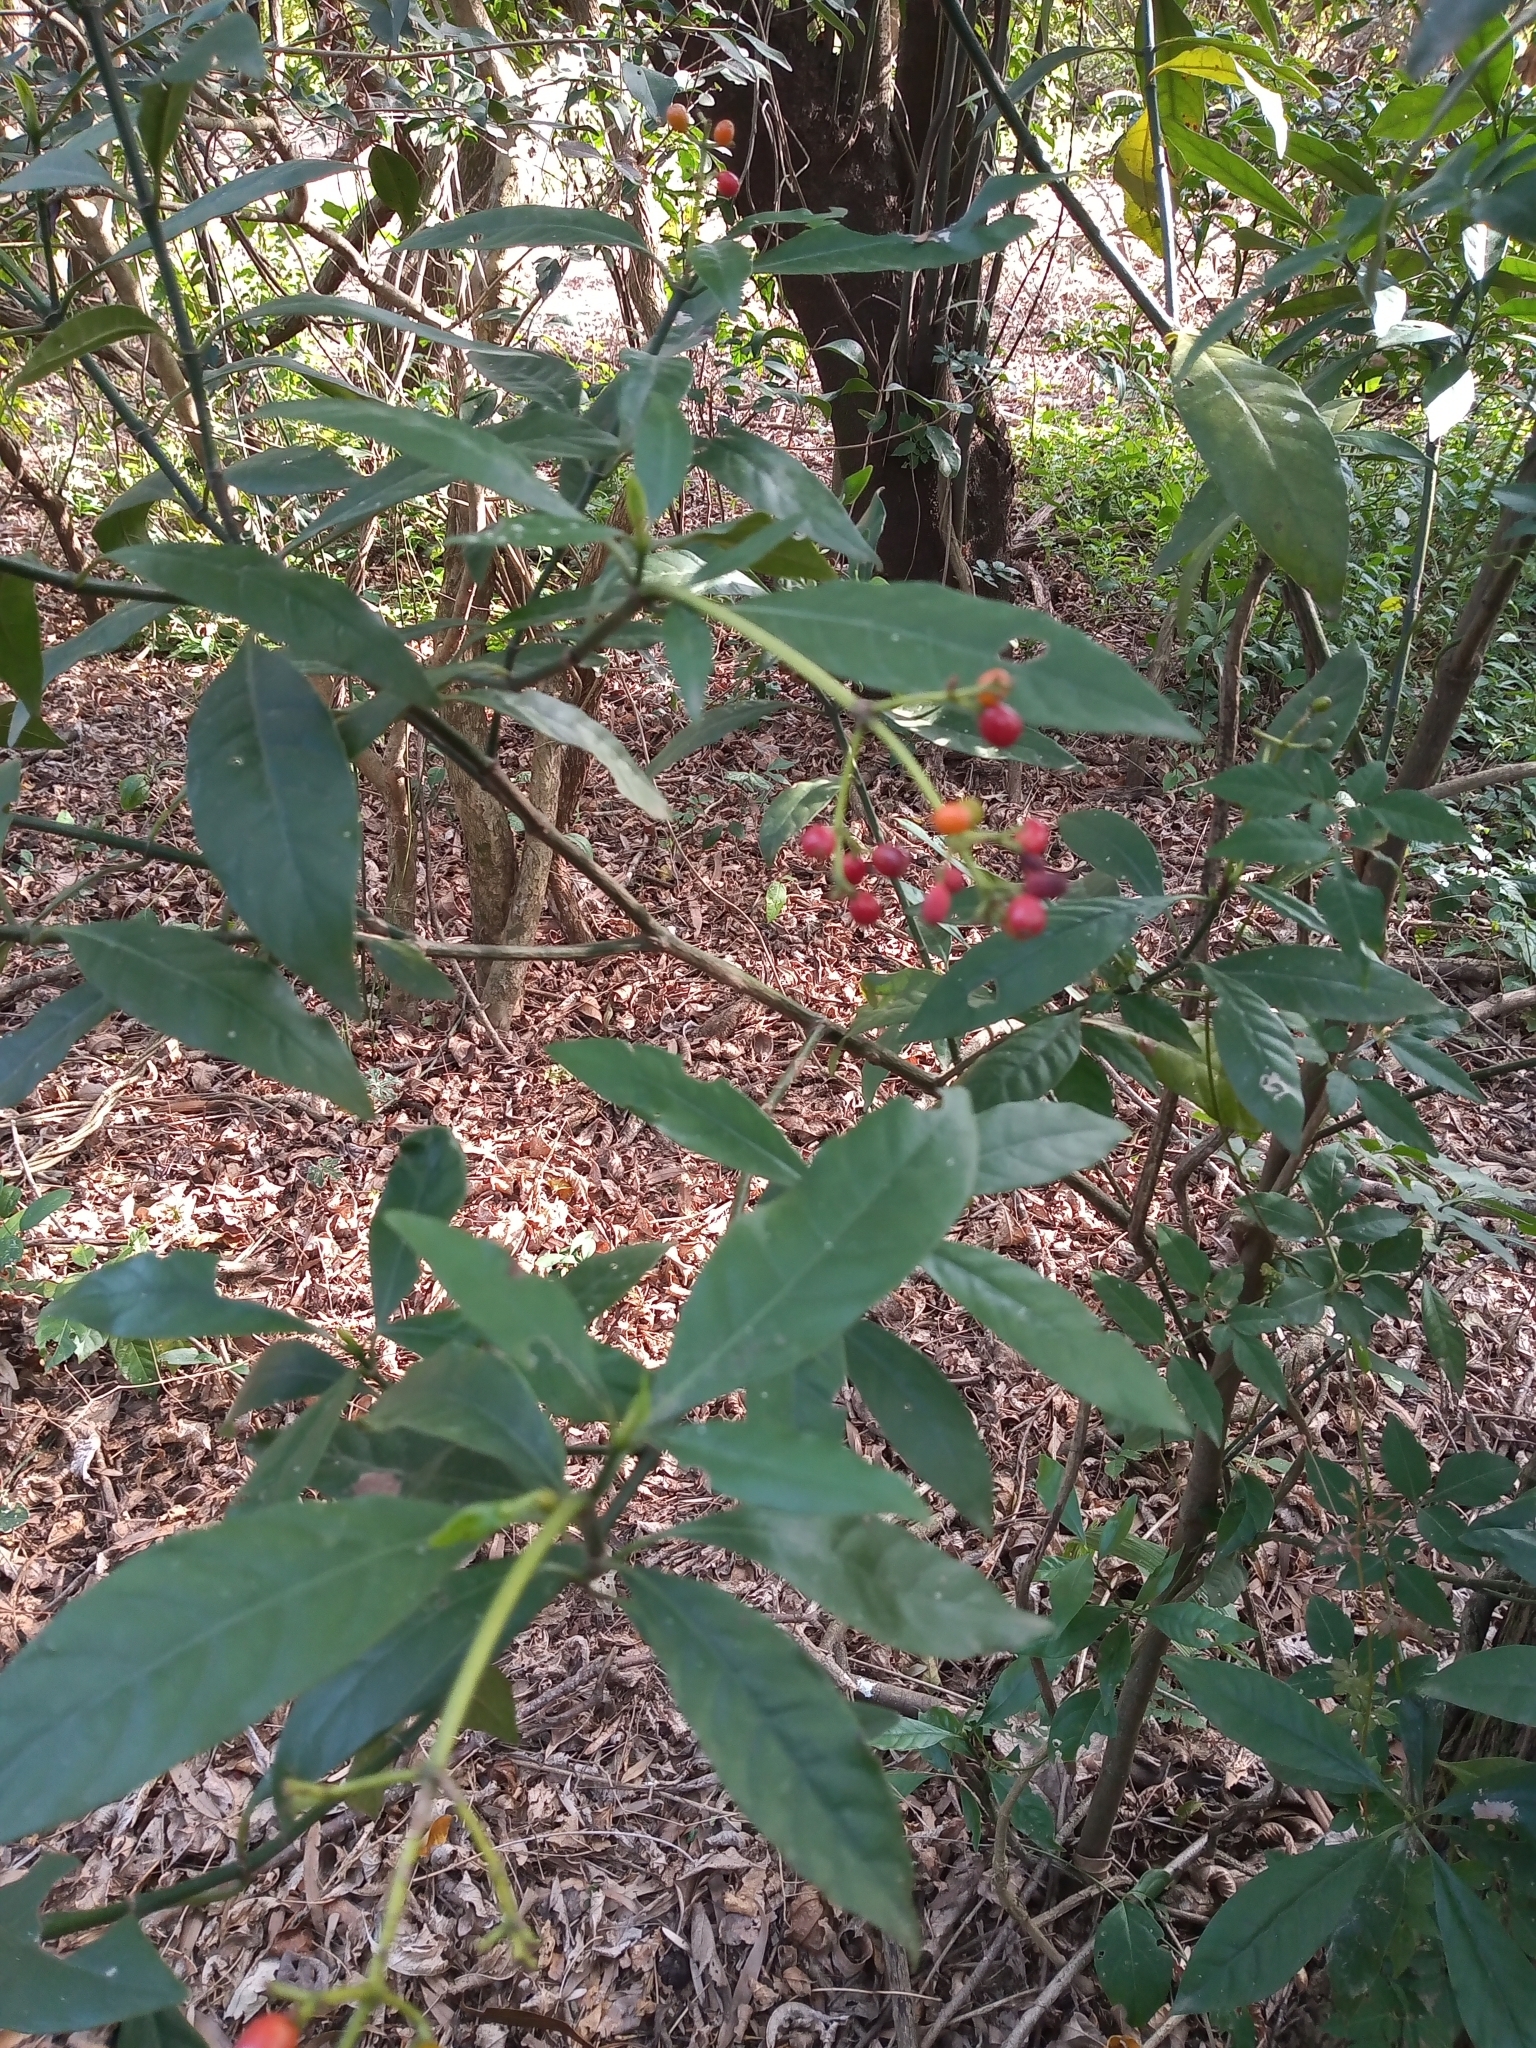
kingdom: Plantae
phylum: Tracheophyta
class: Magnoliopsida
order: Gentianales
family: Rubiaceae
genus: Psychotria
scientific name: Psychotria carthagenensis
